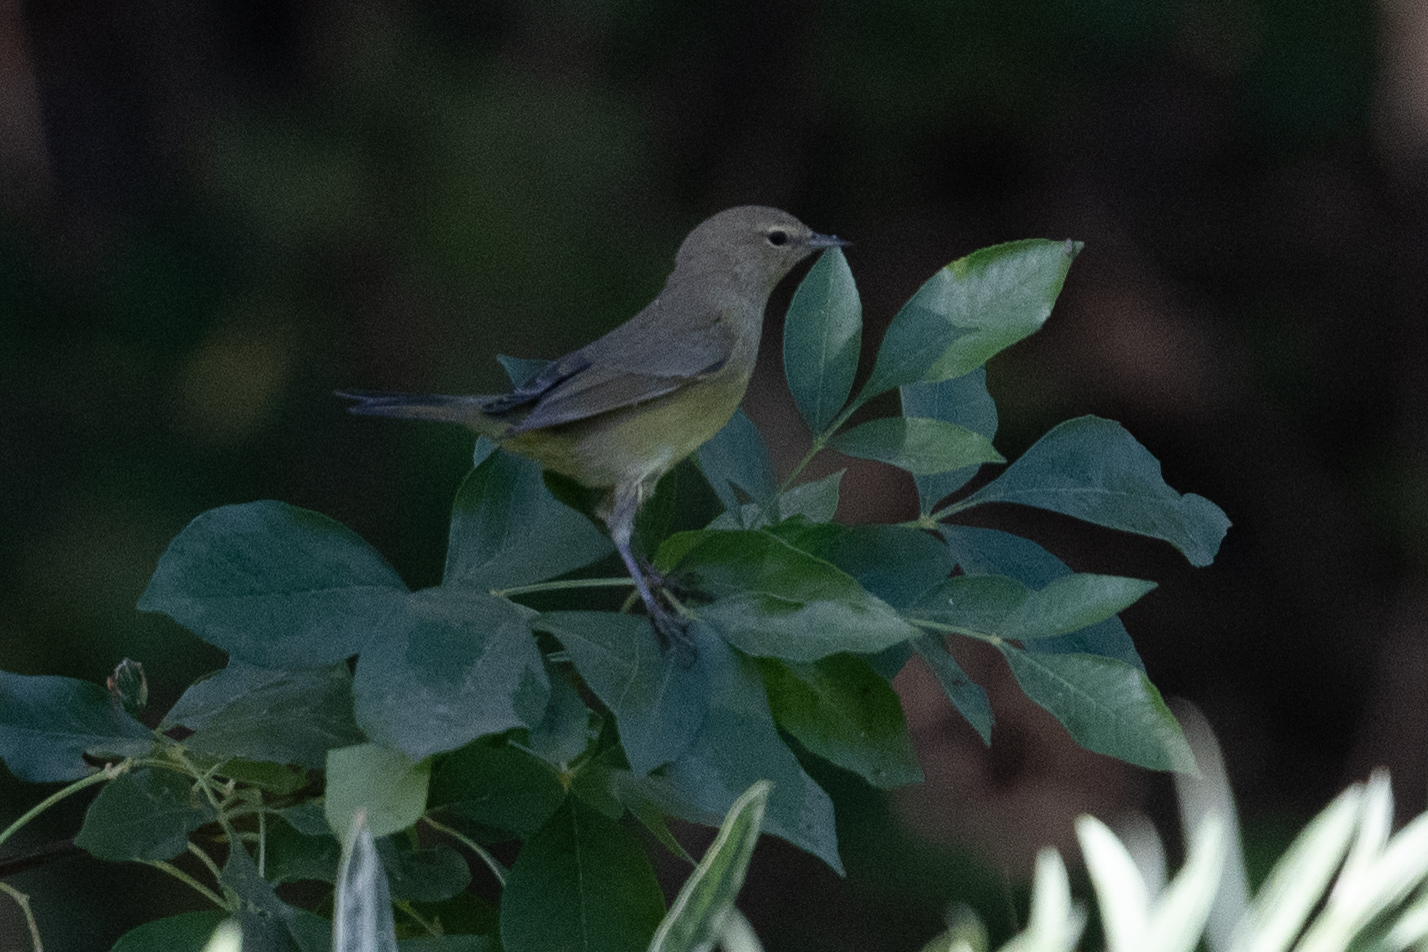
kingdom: Animalia
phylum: Chordata
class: Aves
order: Passeriformes
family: Parulidae
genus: Leiothlypis
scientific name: Leiothlypis celata
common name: Orange-crowned warbler
